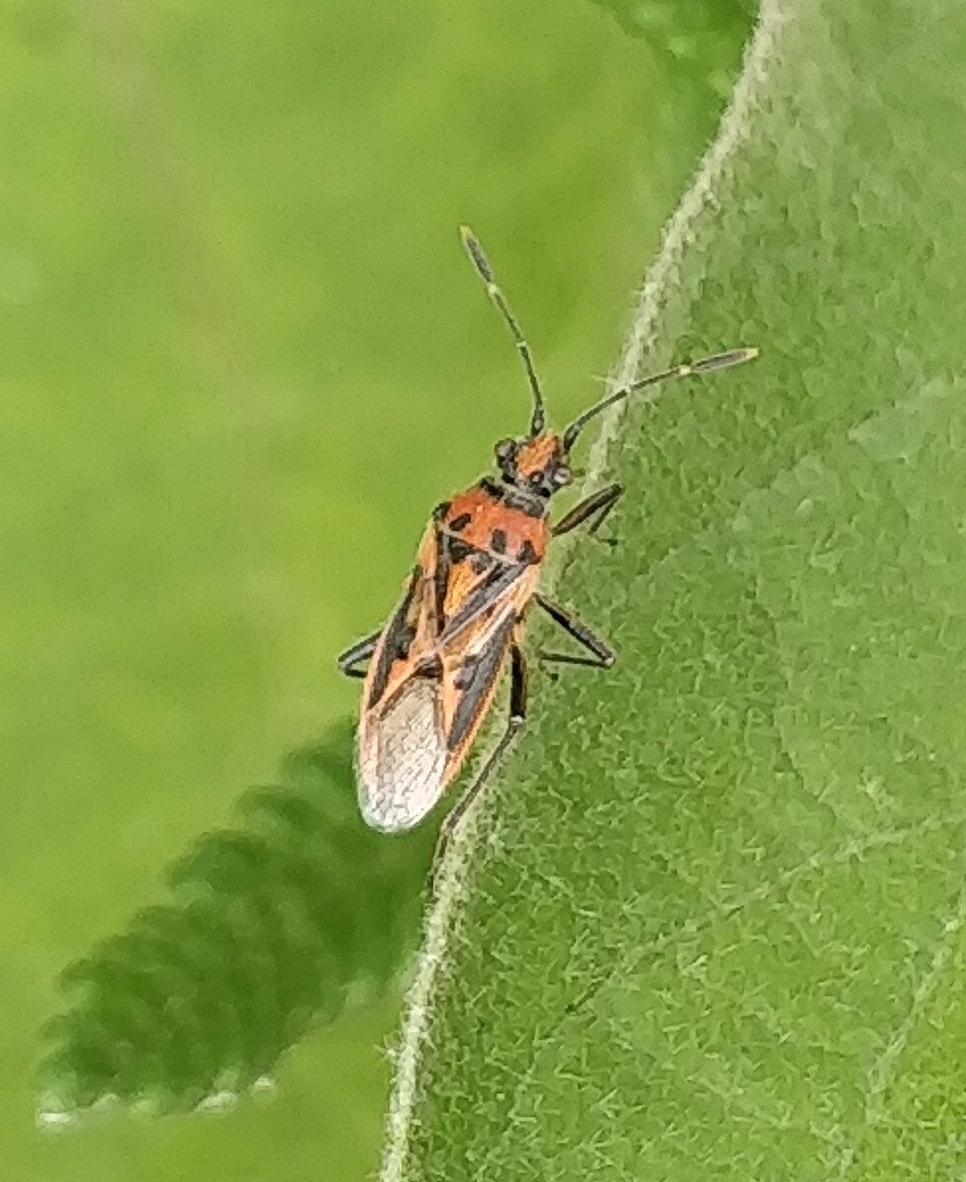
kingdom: Animalia
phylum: Arthropoda
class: Insecta
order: Hemiptera
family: Rhopalidae
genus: Corizus
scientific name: Corizus hyoscyami
